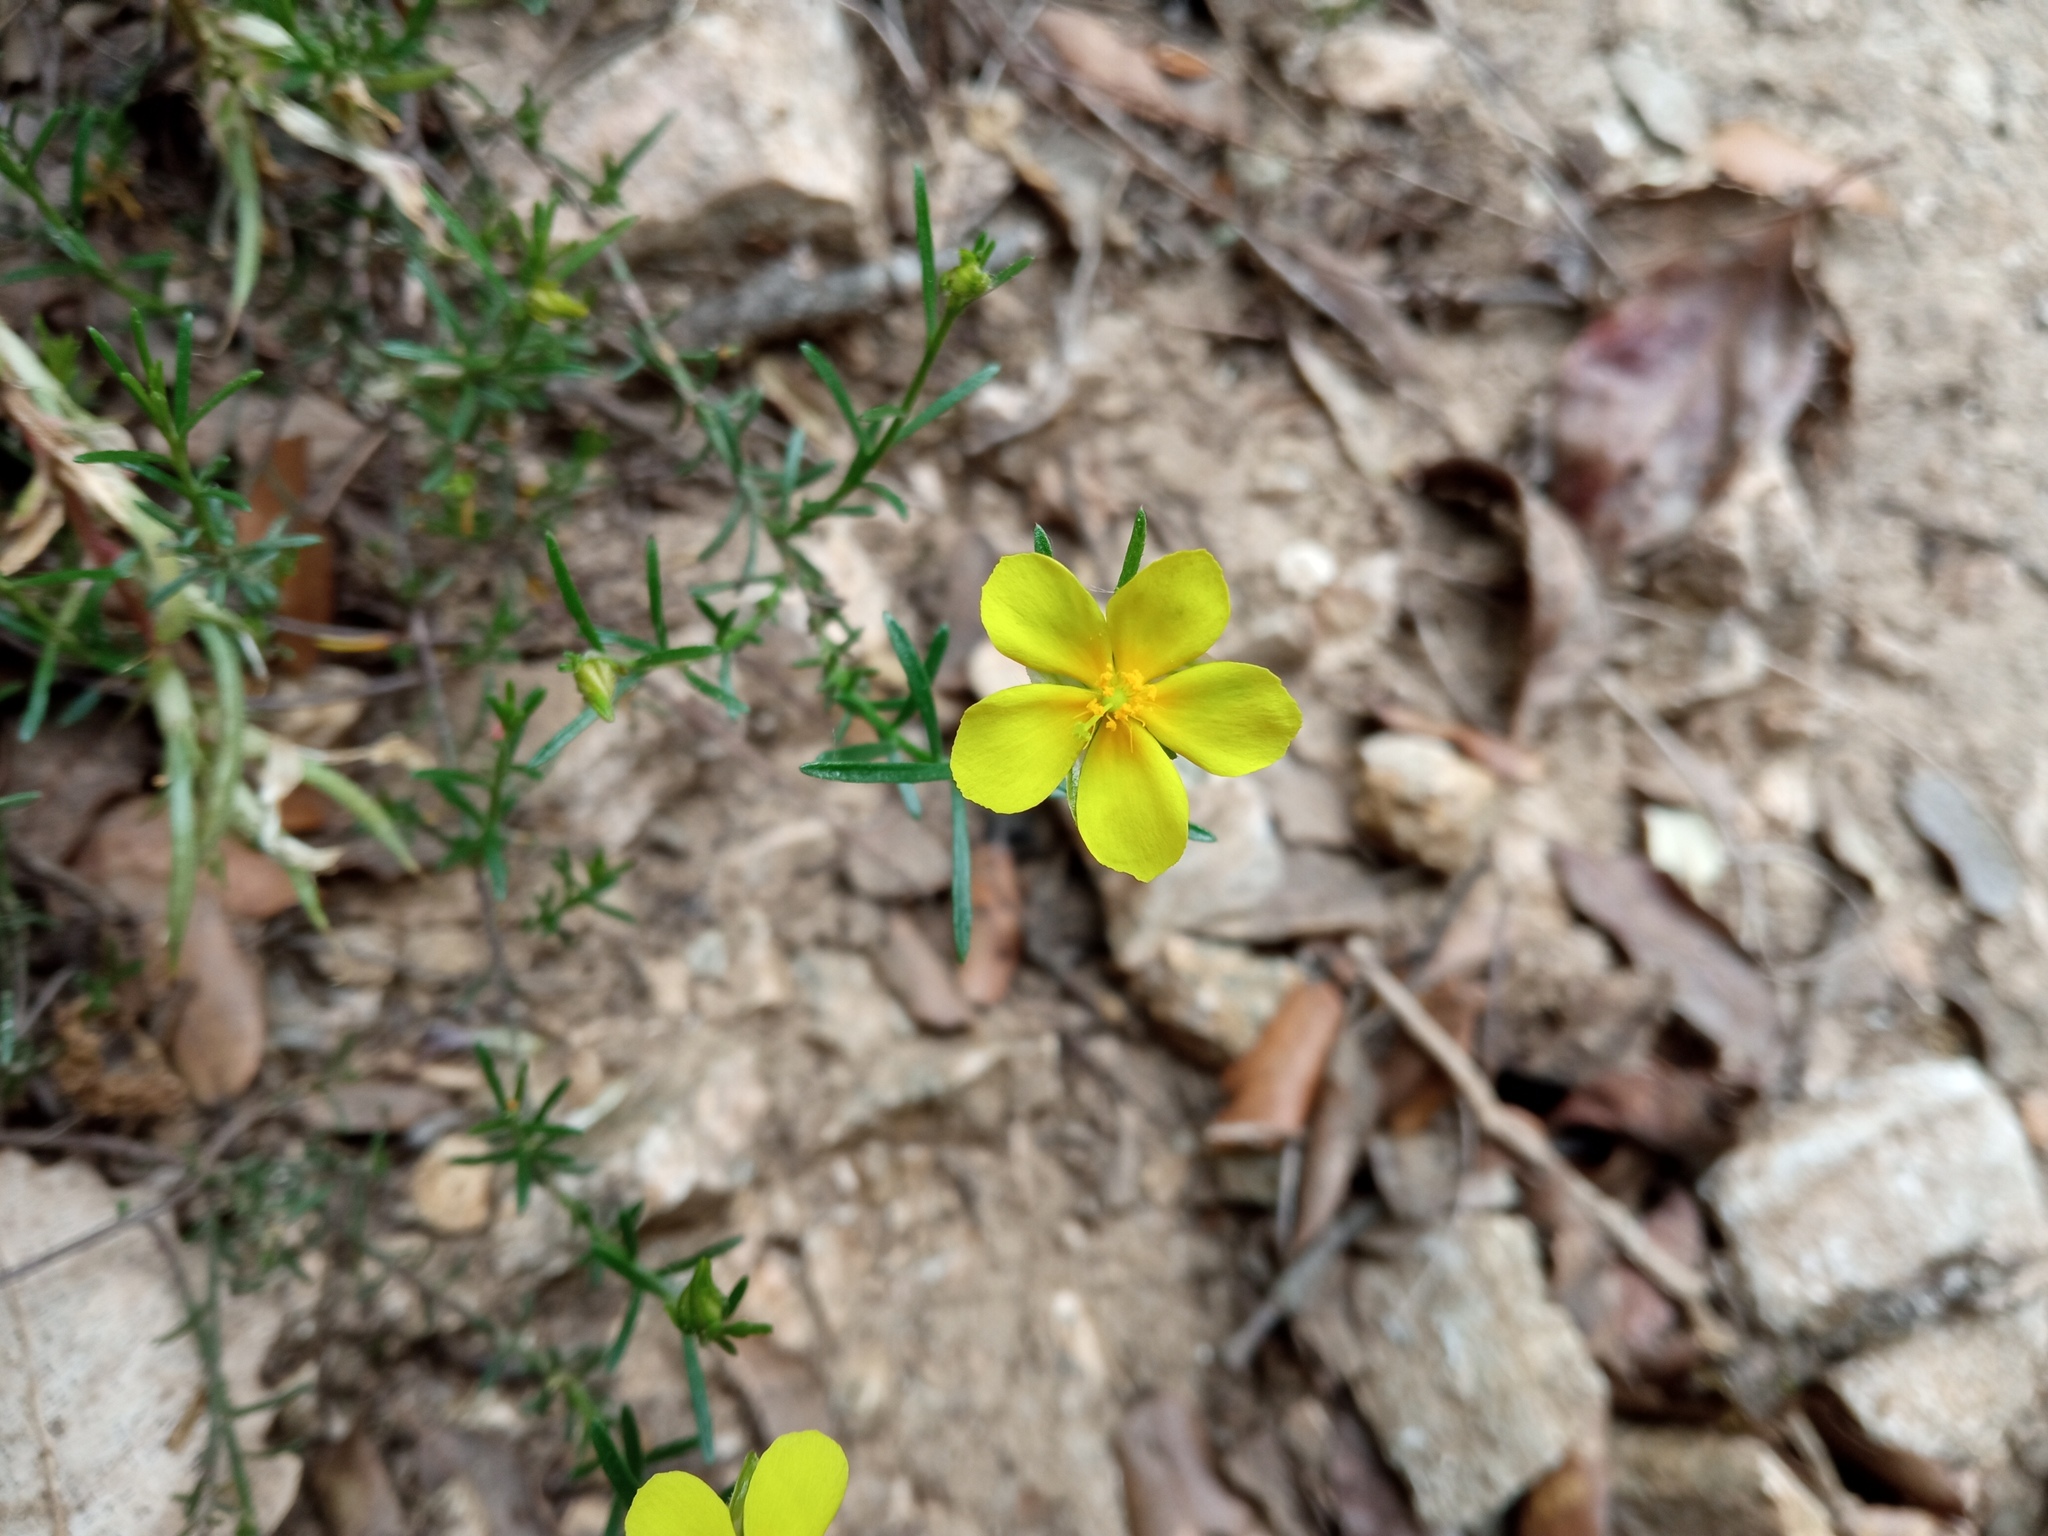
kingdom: Plantae
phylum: Tracheophyta
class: Magnoliopsida
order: Malvales
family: Cistaceae
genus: Fumana
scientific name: Fumana ericifolia
